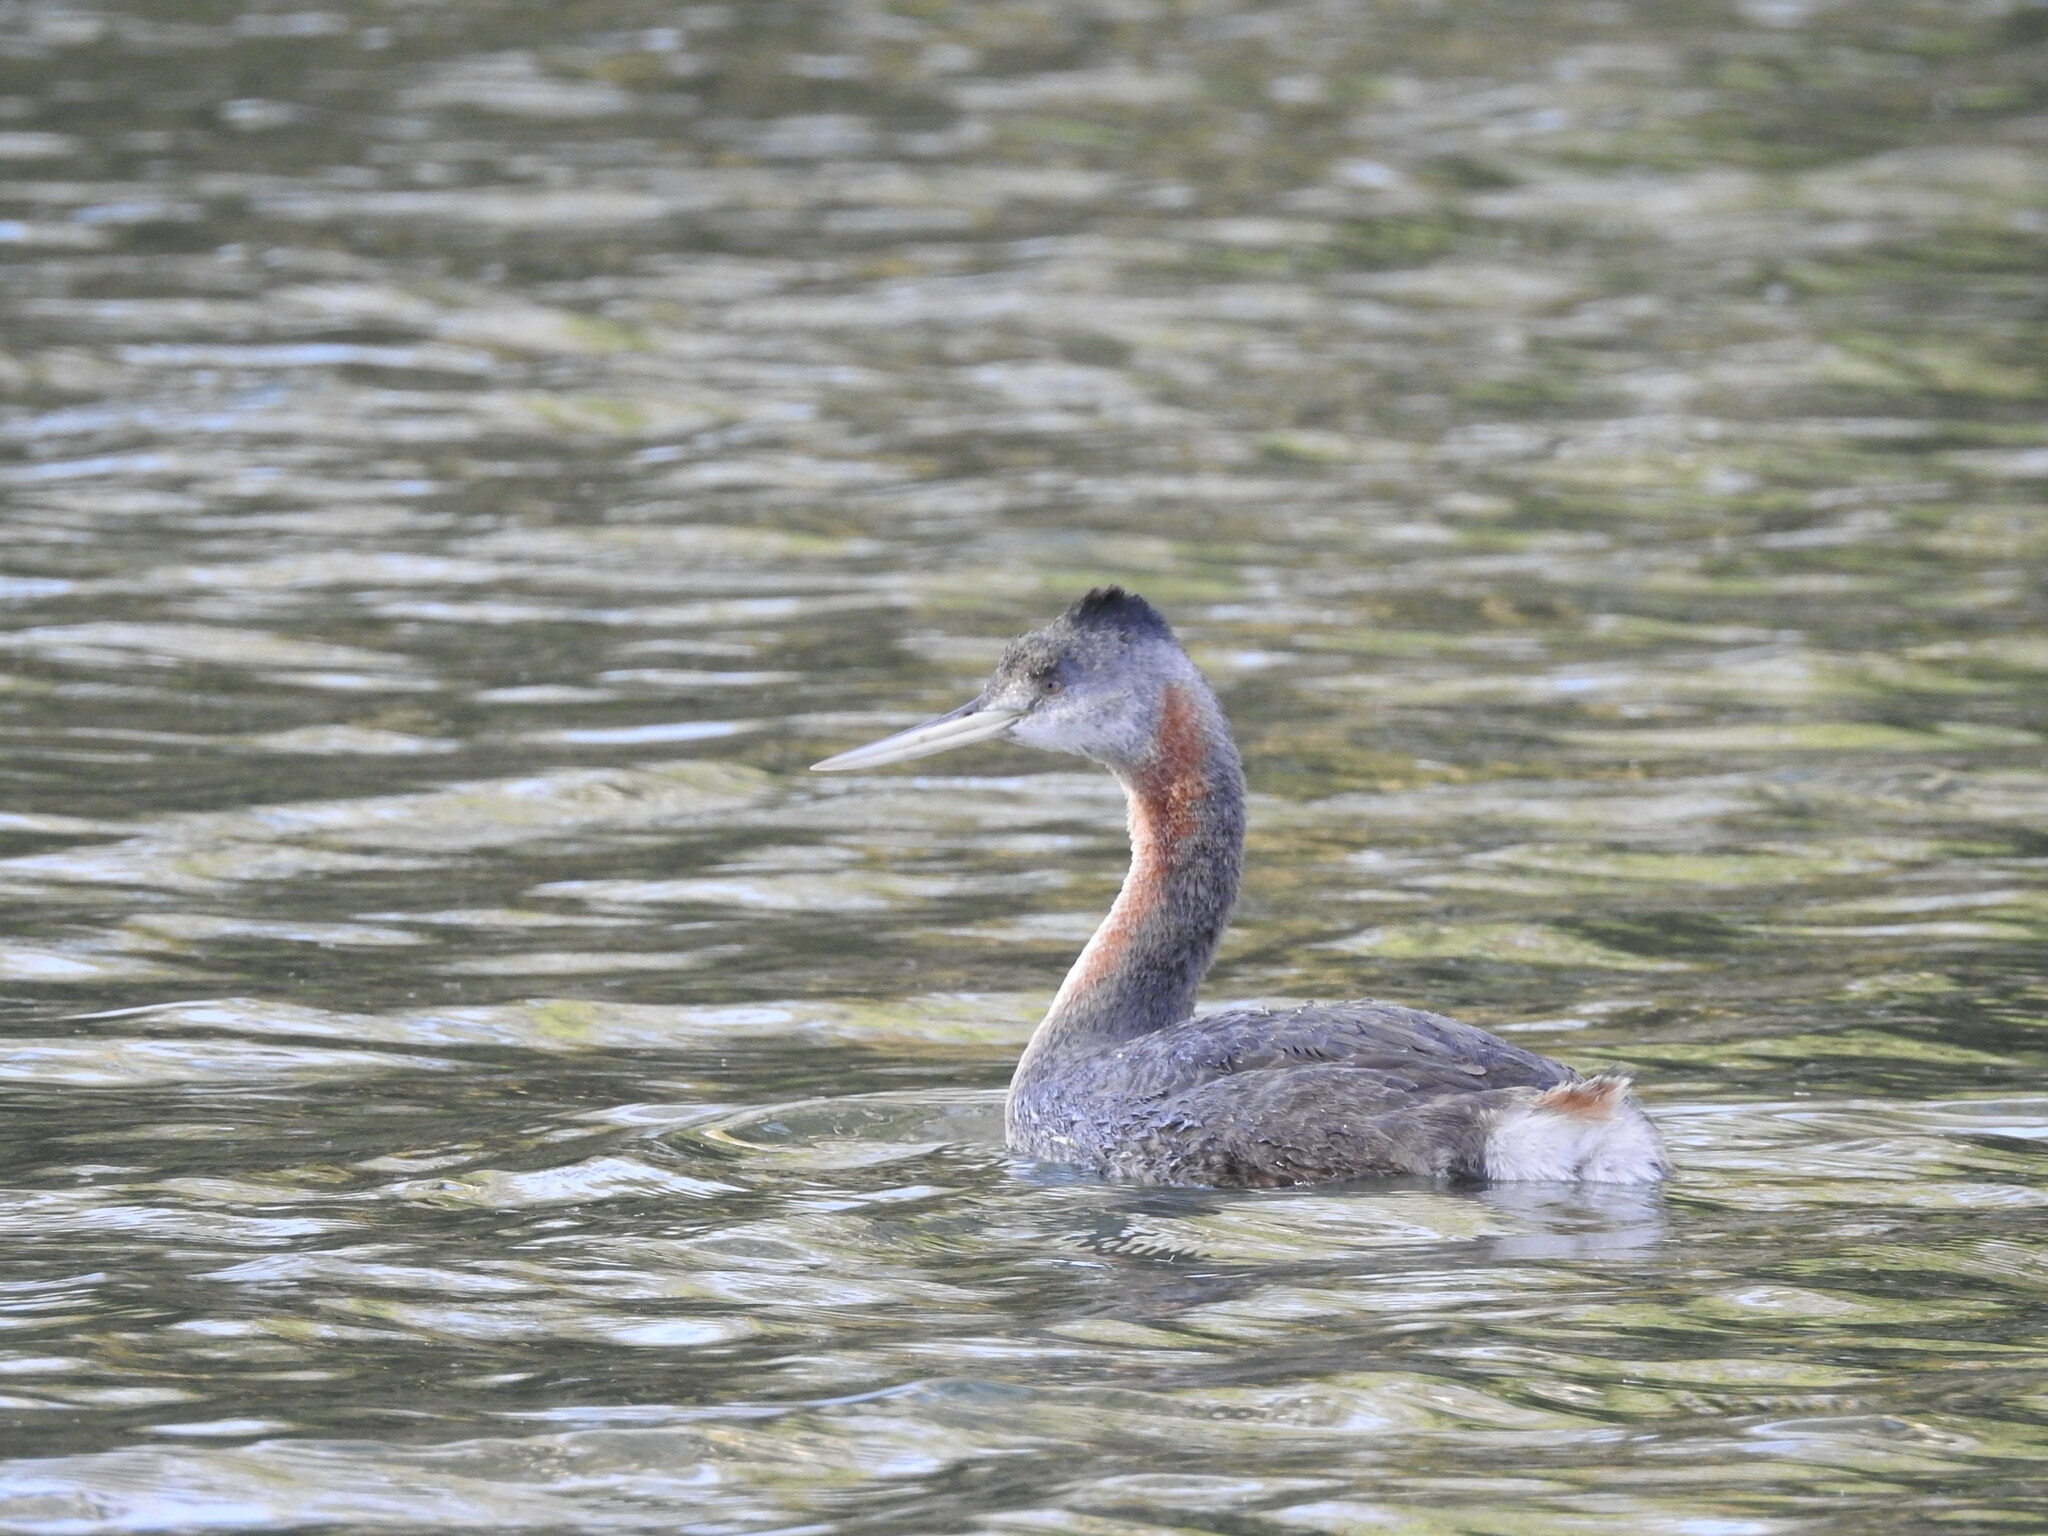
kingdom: Animalia
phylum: Chordata
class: Aves
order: Podicipediformes
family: Podicipedidae
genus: Podiceps
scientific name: Podiceps major
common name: Great grebe
